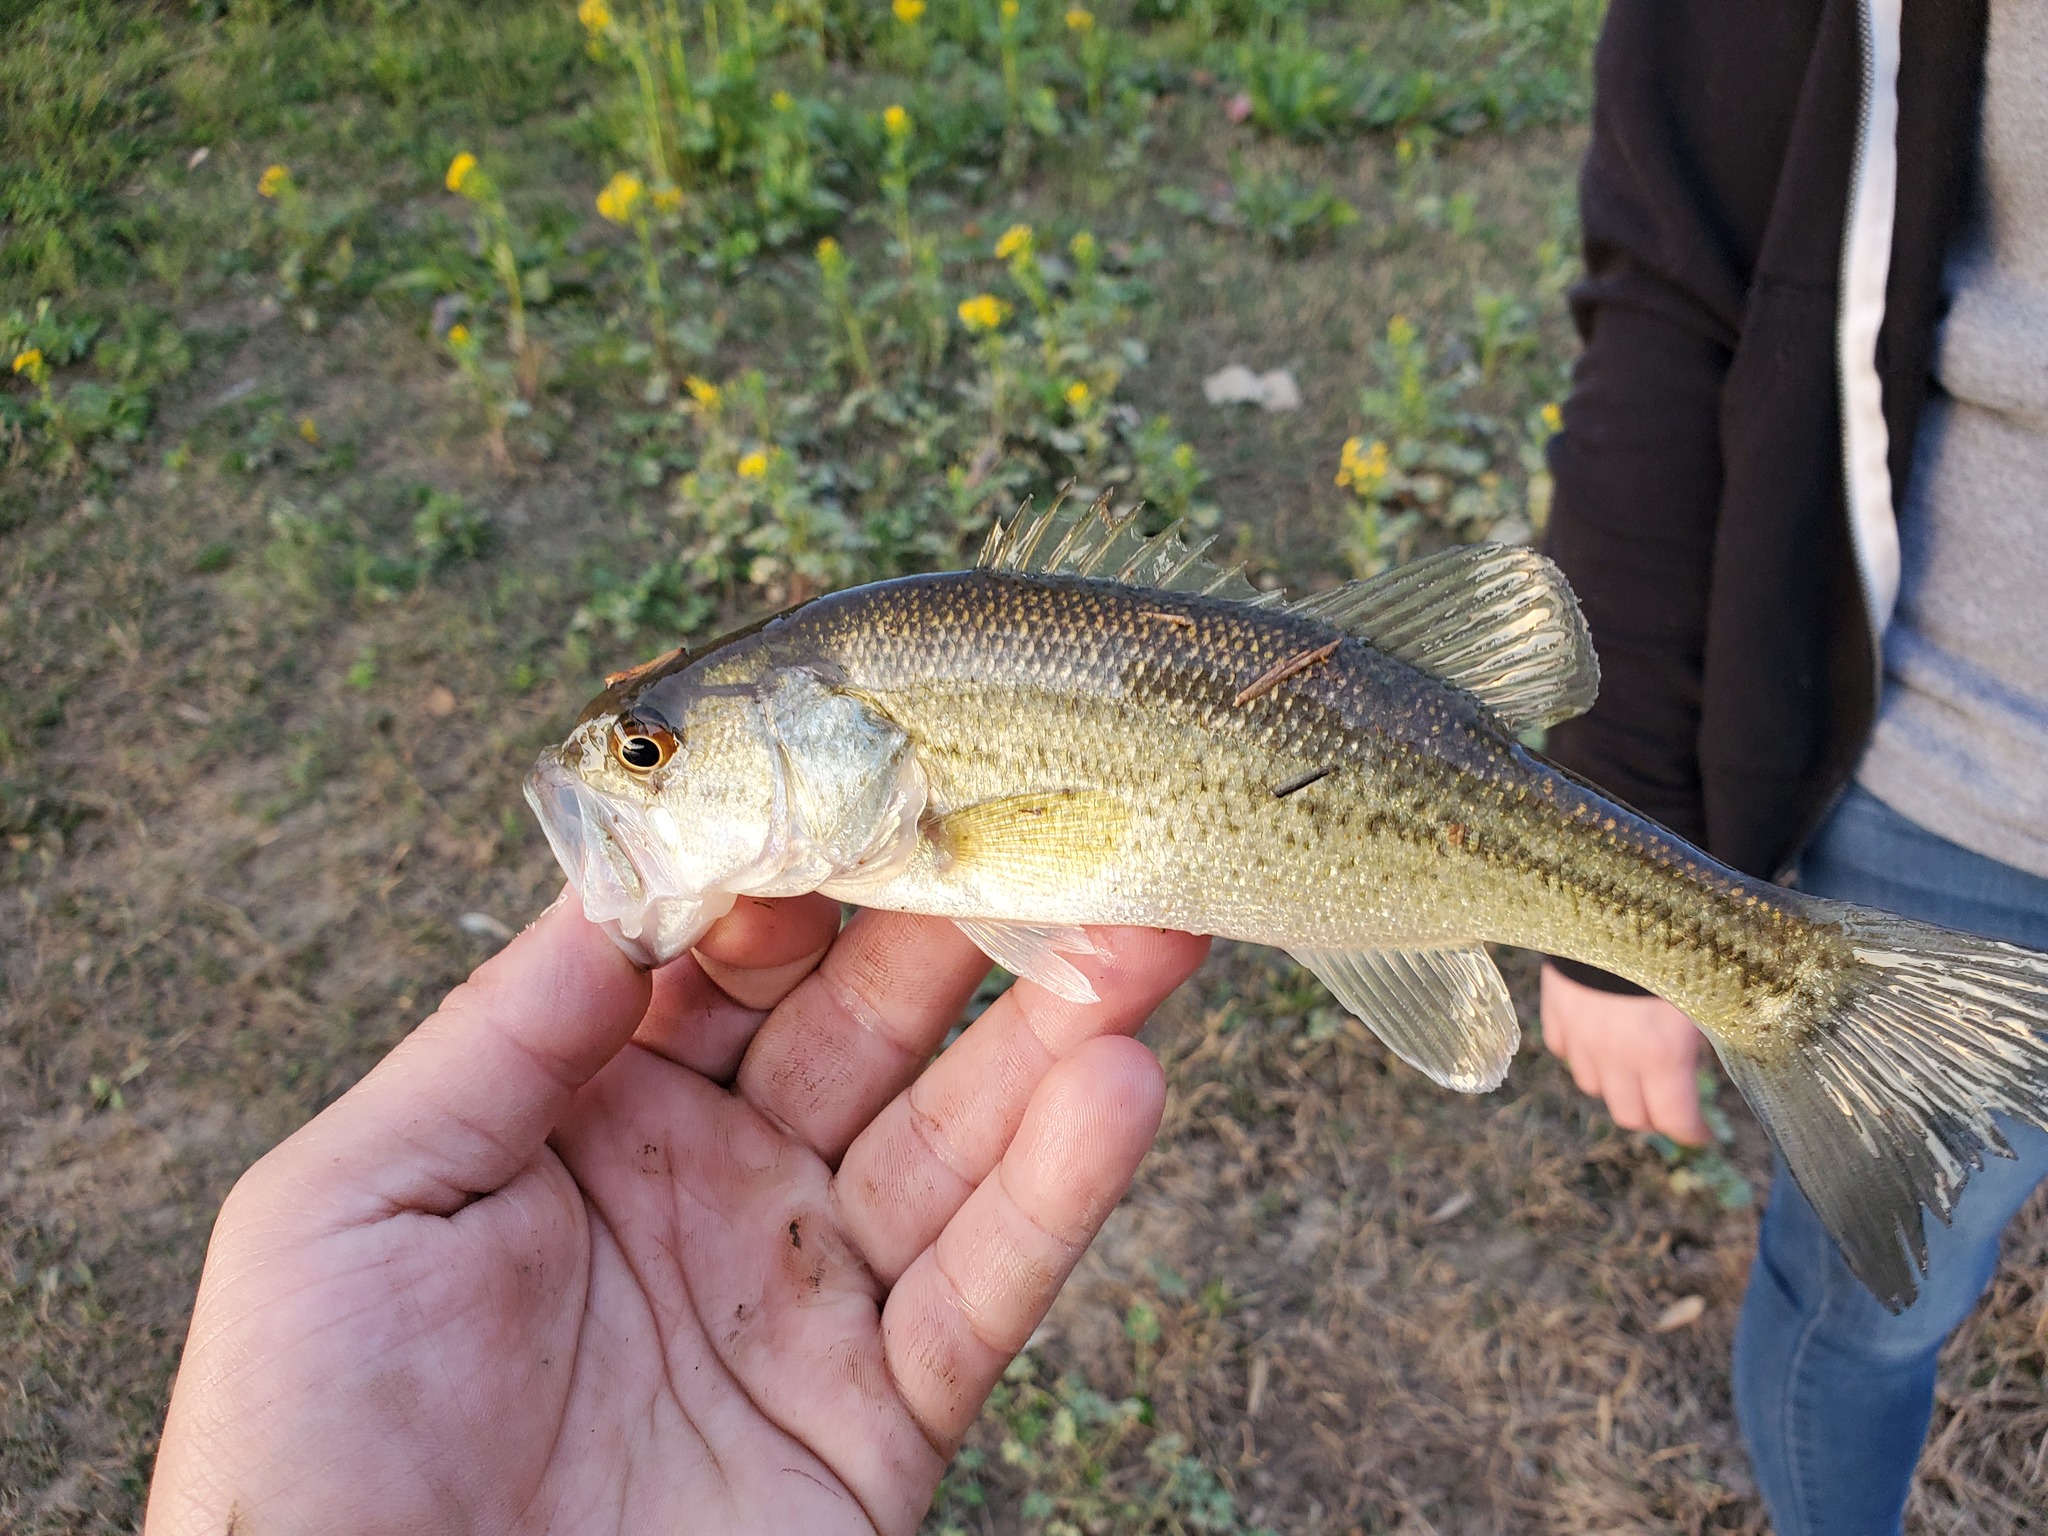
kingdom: Animalia
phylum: Chordata
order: Perciformes
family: Centrarchidae
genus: Micropterus
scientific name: Micropterus
